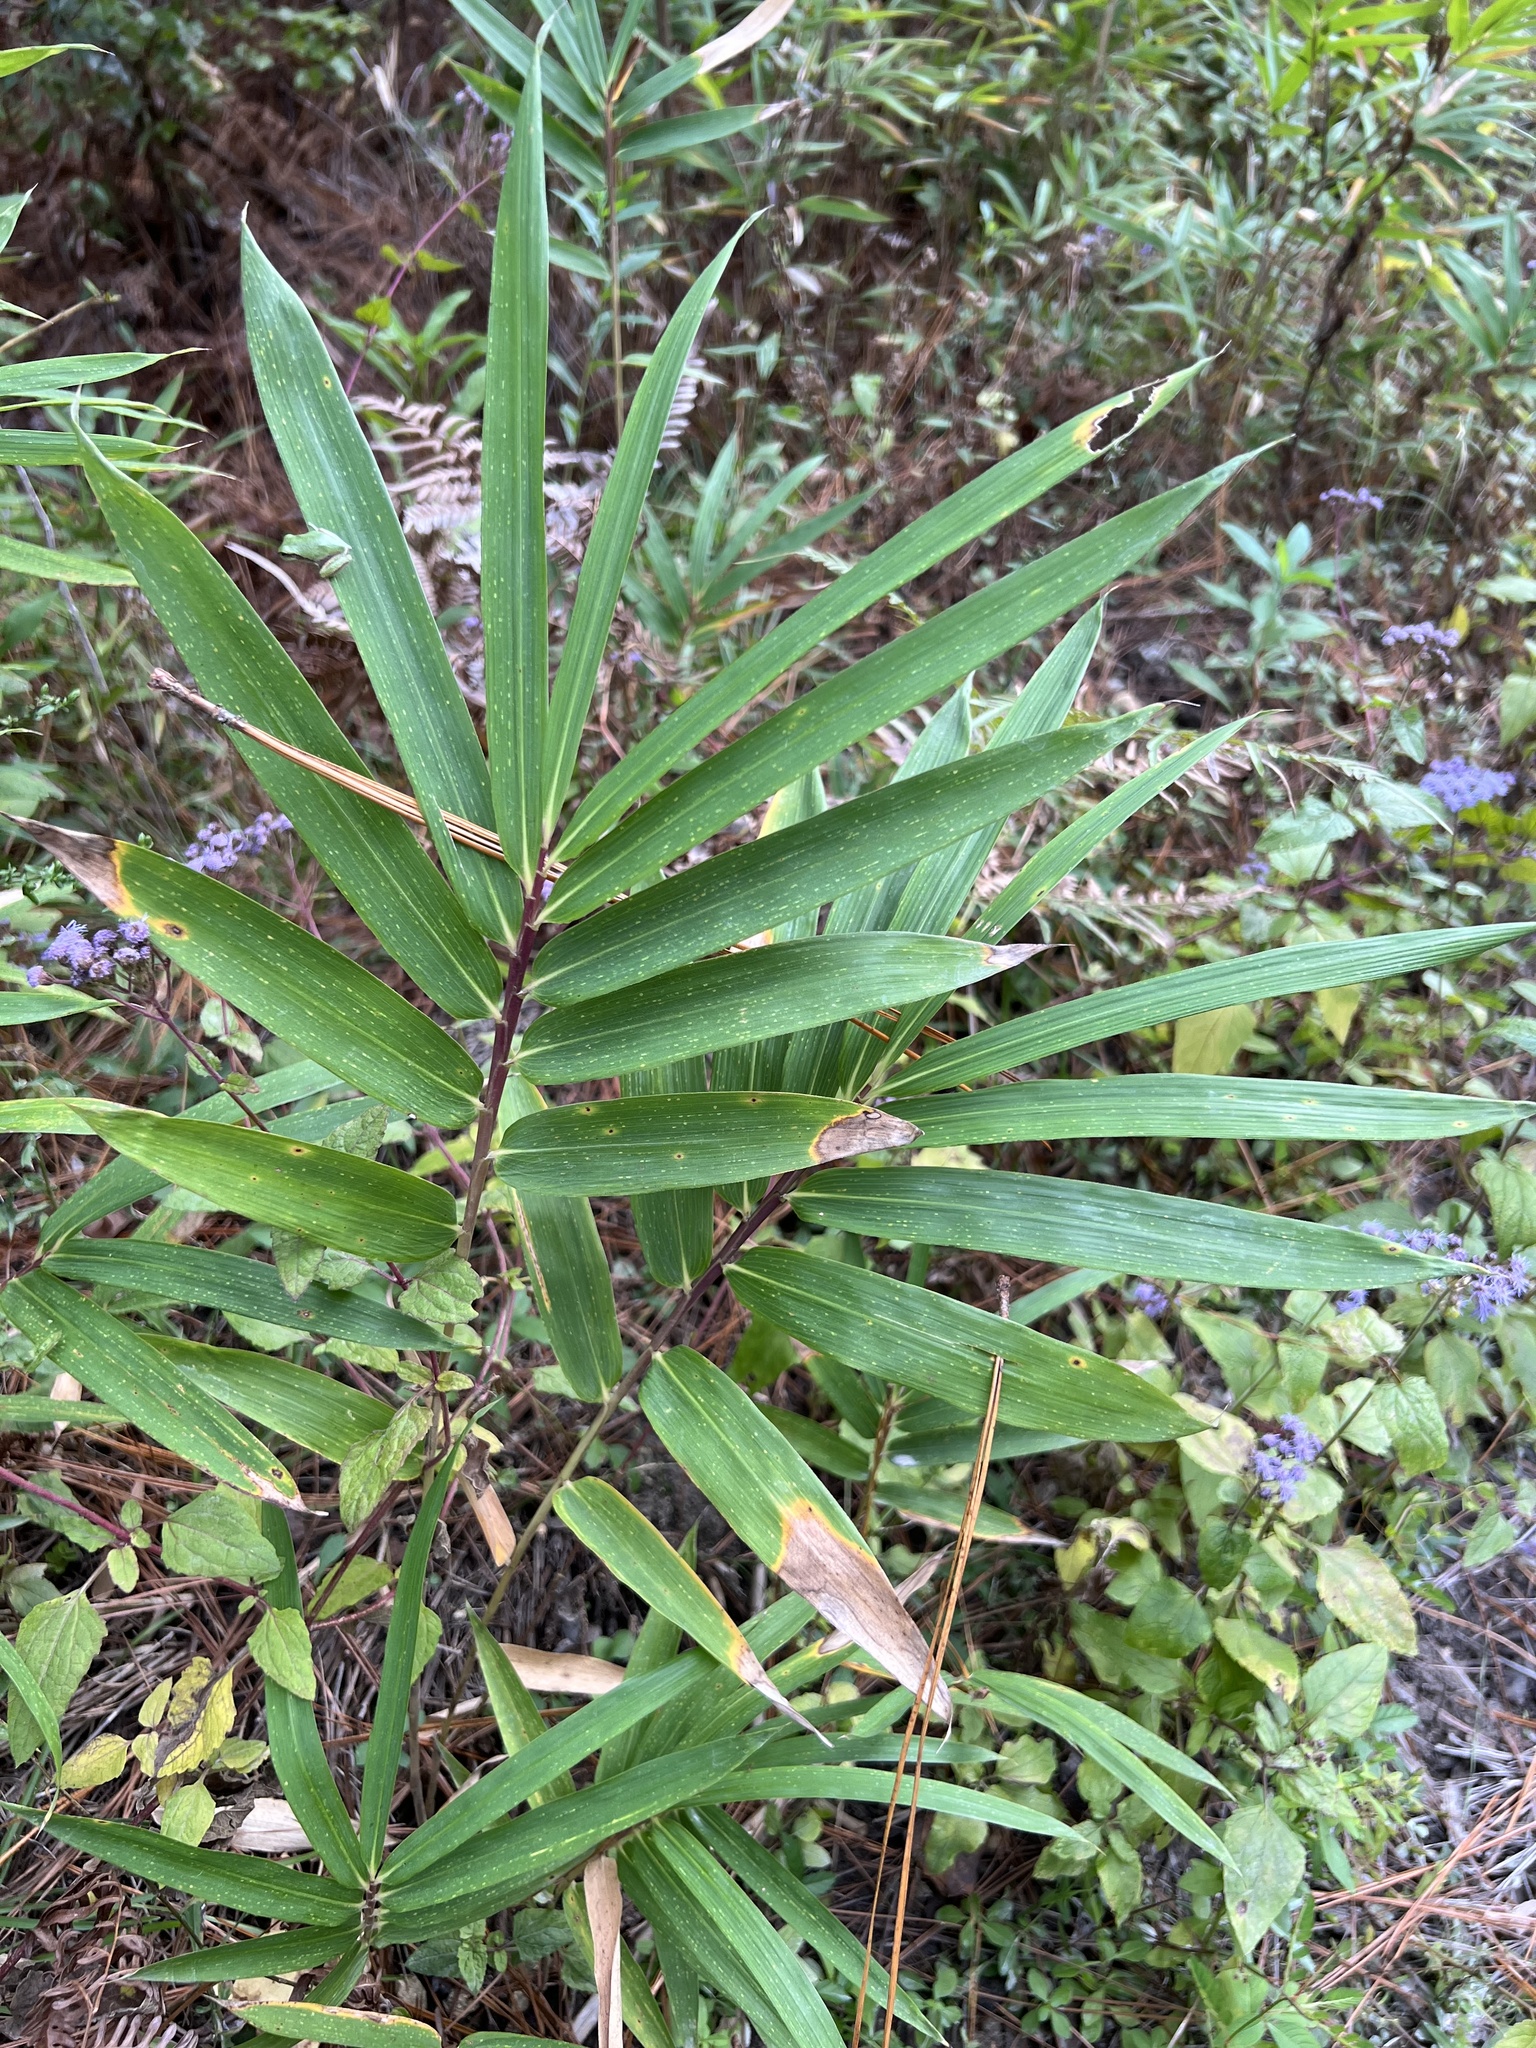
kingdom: Plantae
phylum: Tracheophyta
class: Liliopsida
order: Poales
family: Poaceae
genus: Arundinaria
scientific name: Arundinaria tecta
